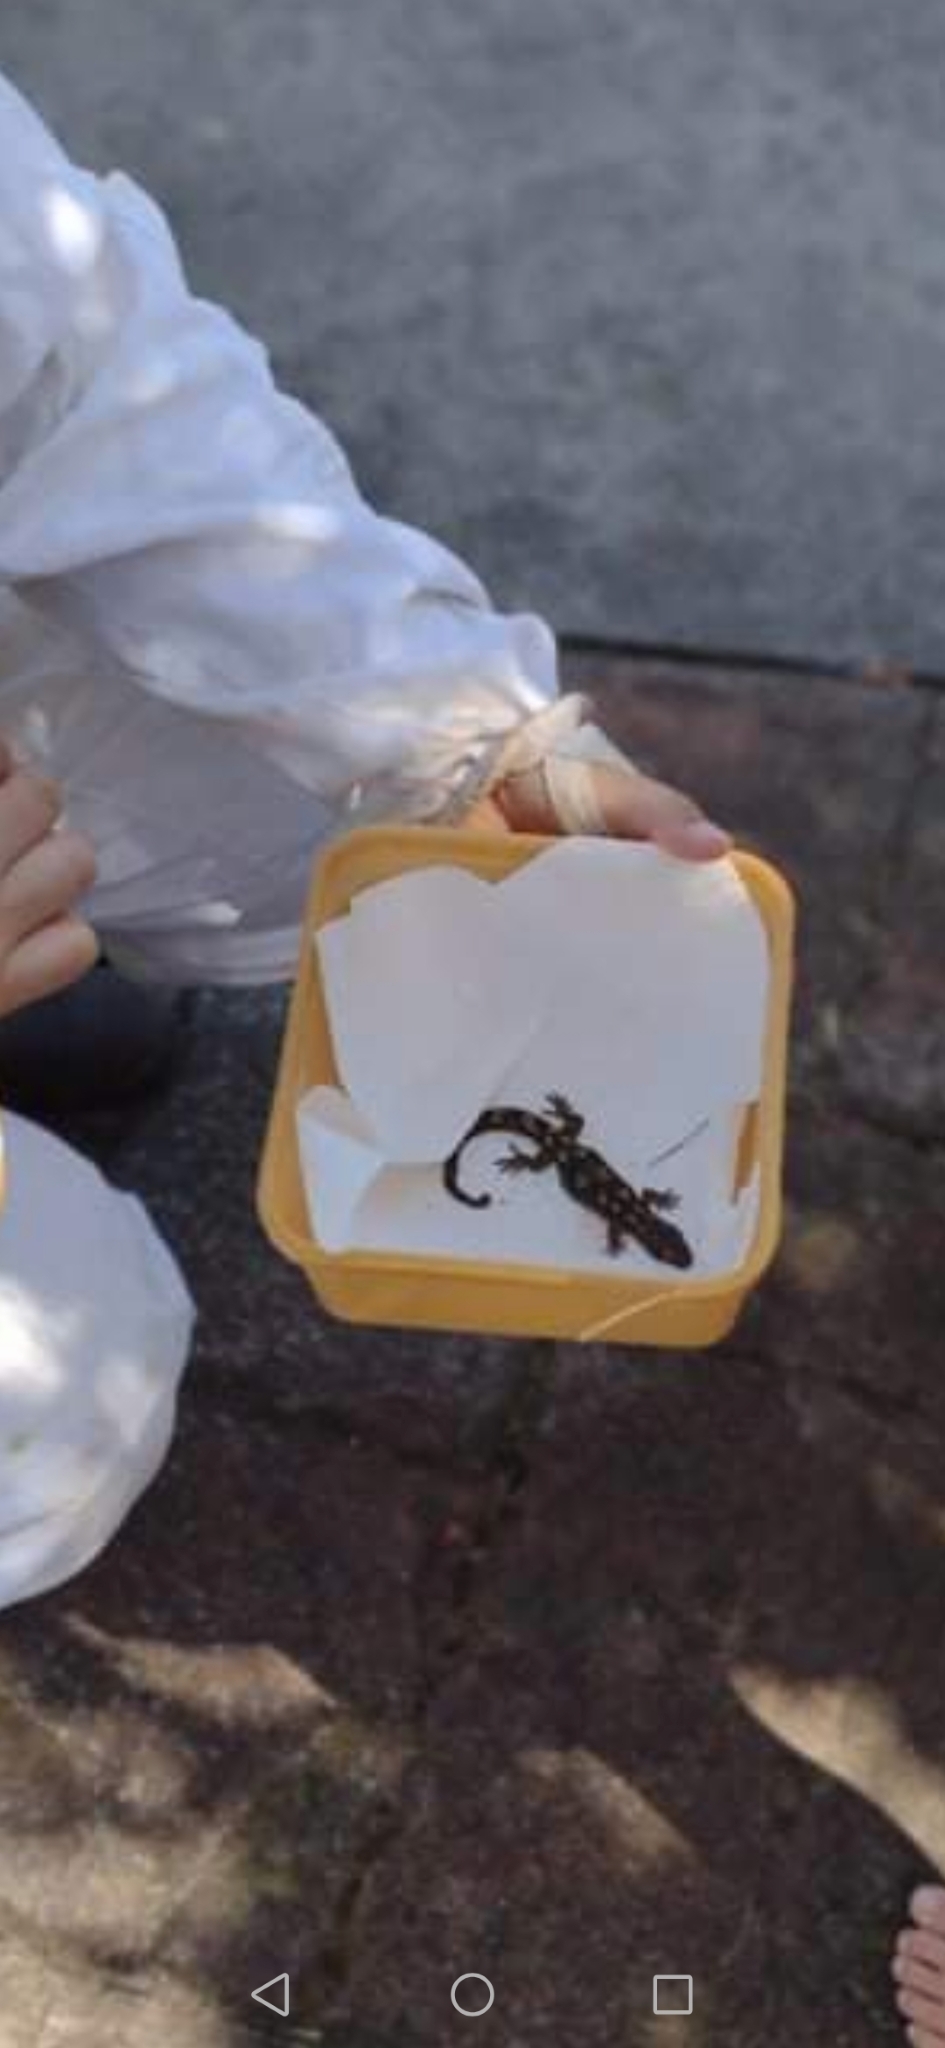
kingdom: Animalia
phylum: Chordata
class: Squamata
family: Diplodactylidae
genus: Woodworthia
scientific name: Woodworthia maculata
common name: Raukawa gecko
